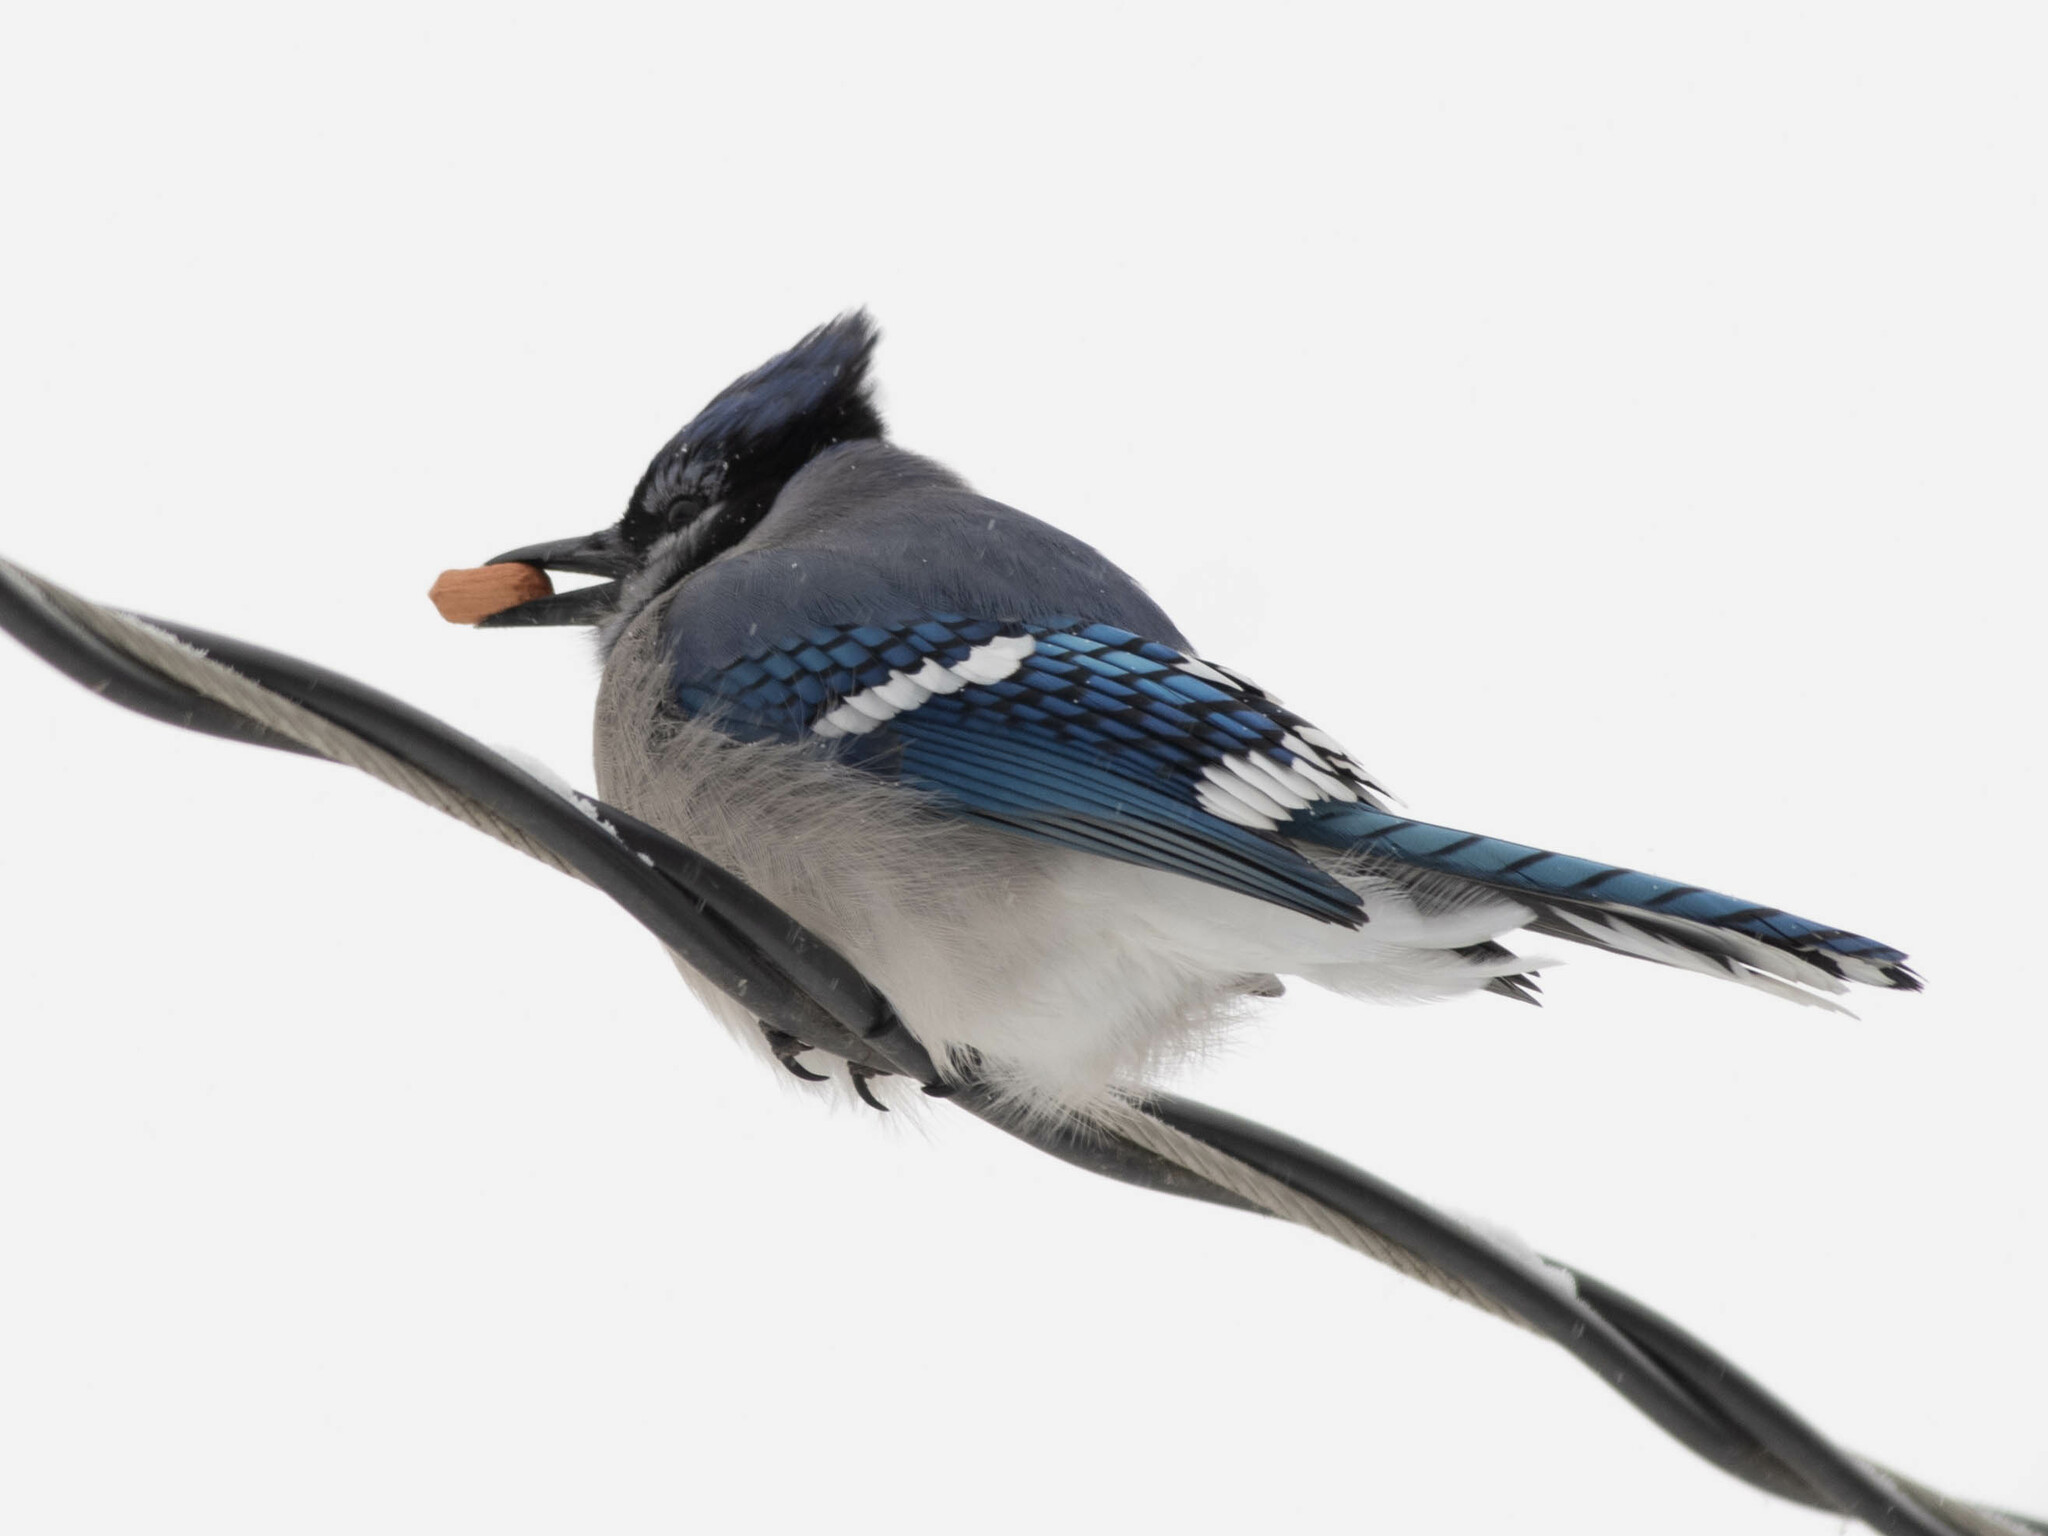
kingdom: Animalia
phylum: Chordata
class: Aves
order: Passeriformes
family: Corvidae
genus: Cyanocitta
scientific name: Cyanocitta cristata
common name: Blue jay
